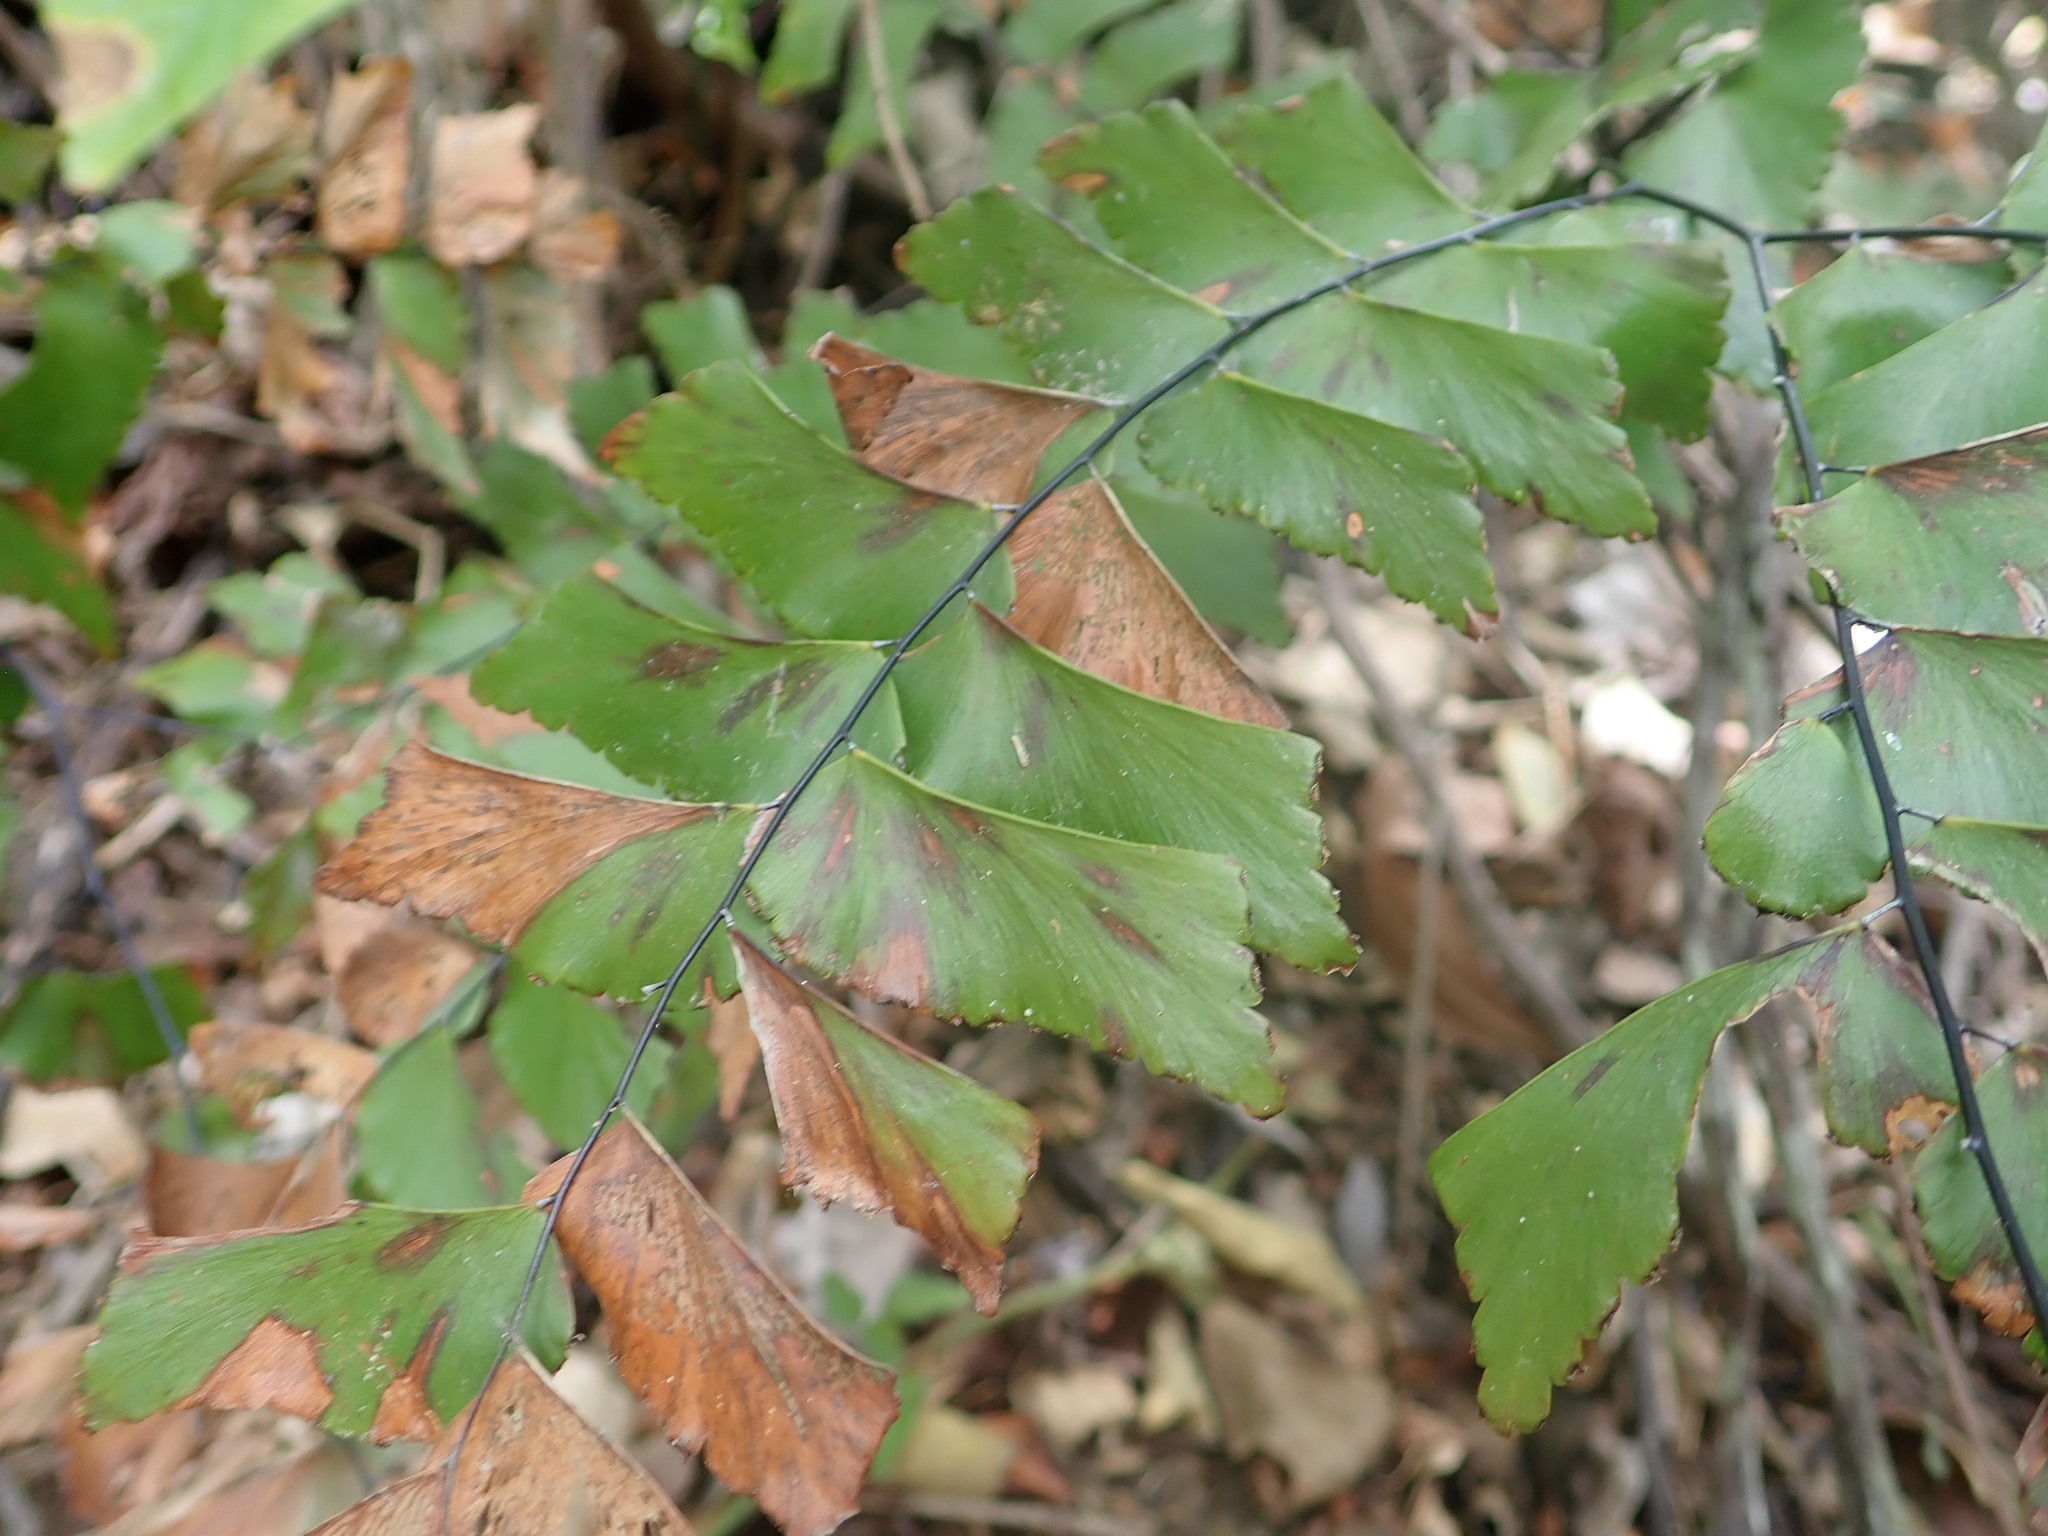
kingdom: Plantae
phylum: Tracheophyta
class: Polypodiopsida
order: Polypodiales
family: Pteridaceae
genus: Adiantum
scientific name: Adiantum trapeziforme
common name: Diamond maidenhair
